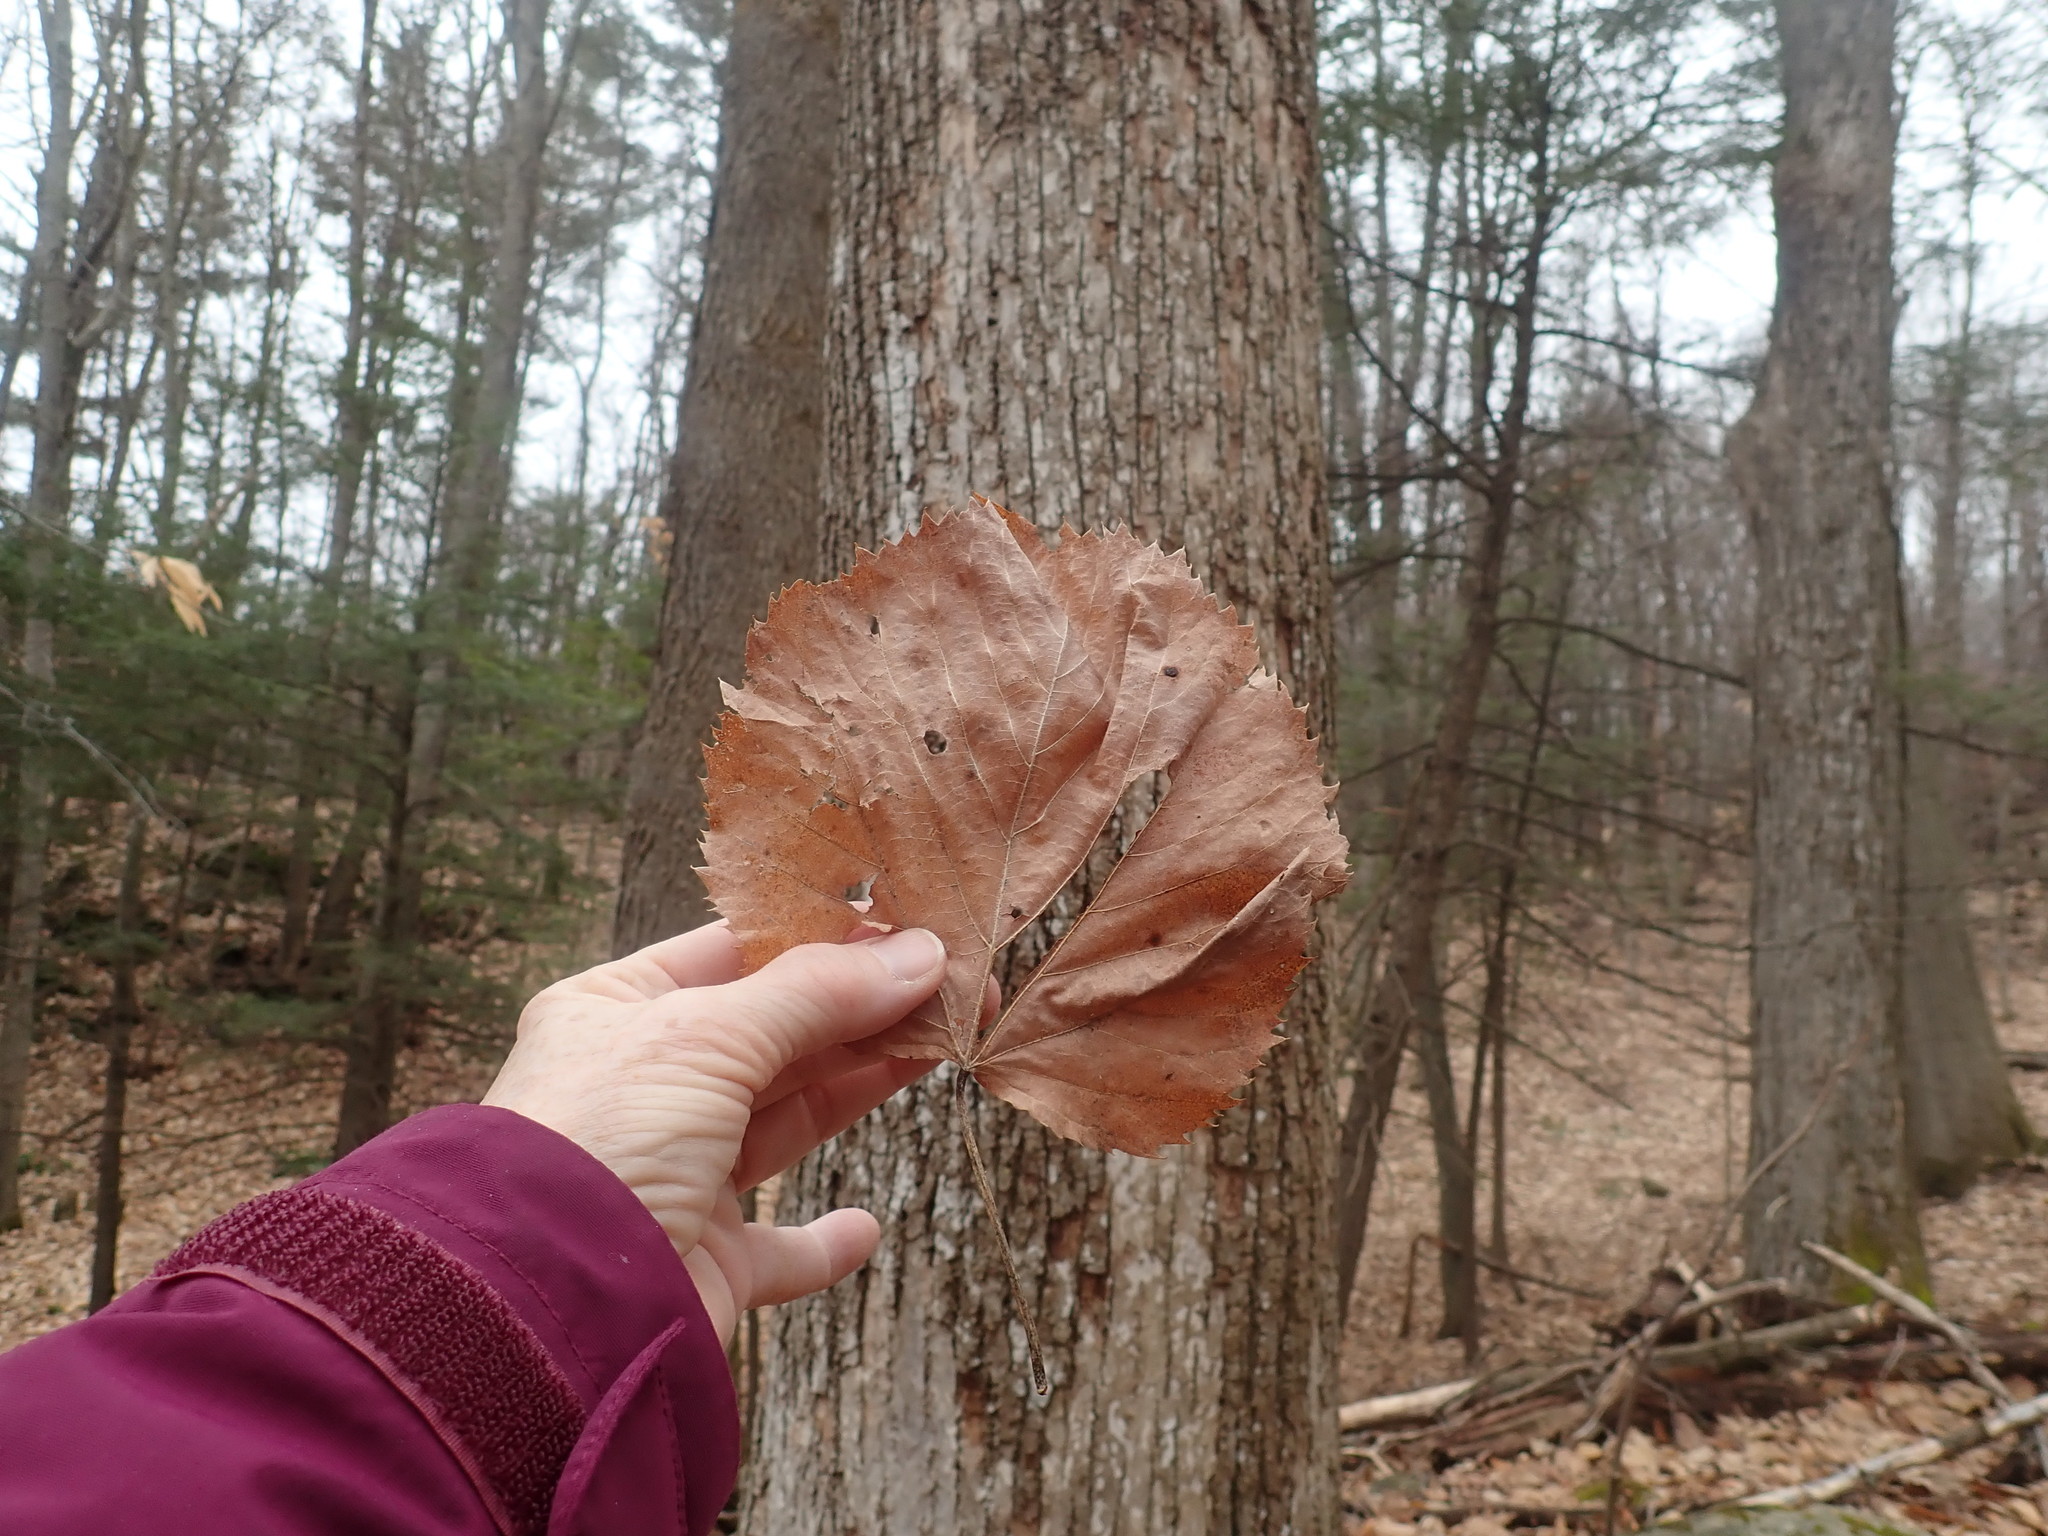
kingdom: Plantae
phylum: Tracheophyta
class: Magnoliopsida
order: Malvales
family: Malvaceae
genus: Tilia
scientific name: Tilia americana
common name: Basswood
